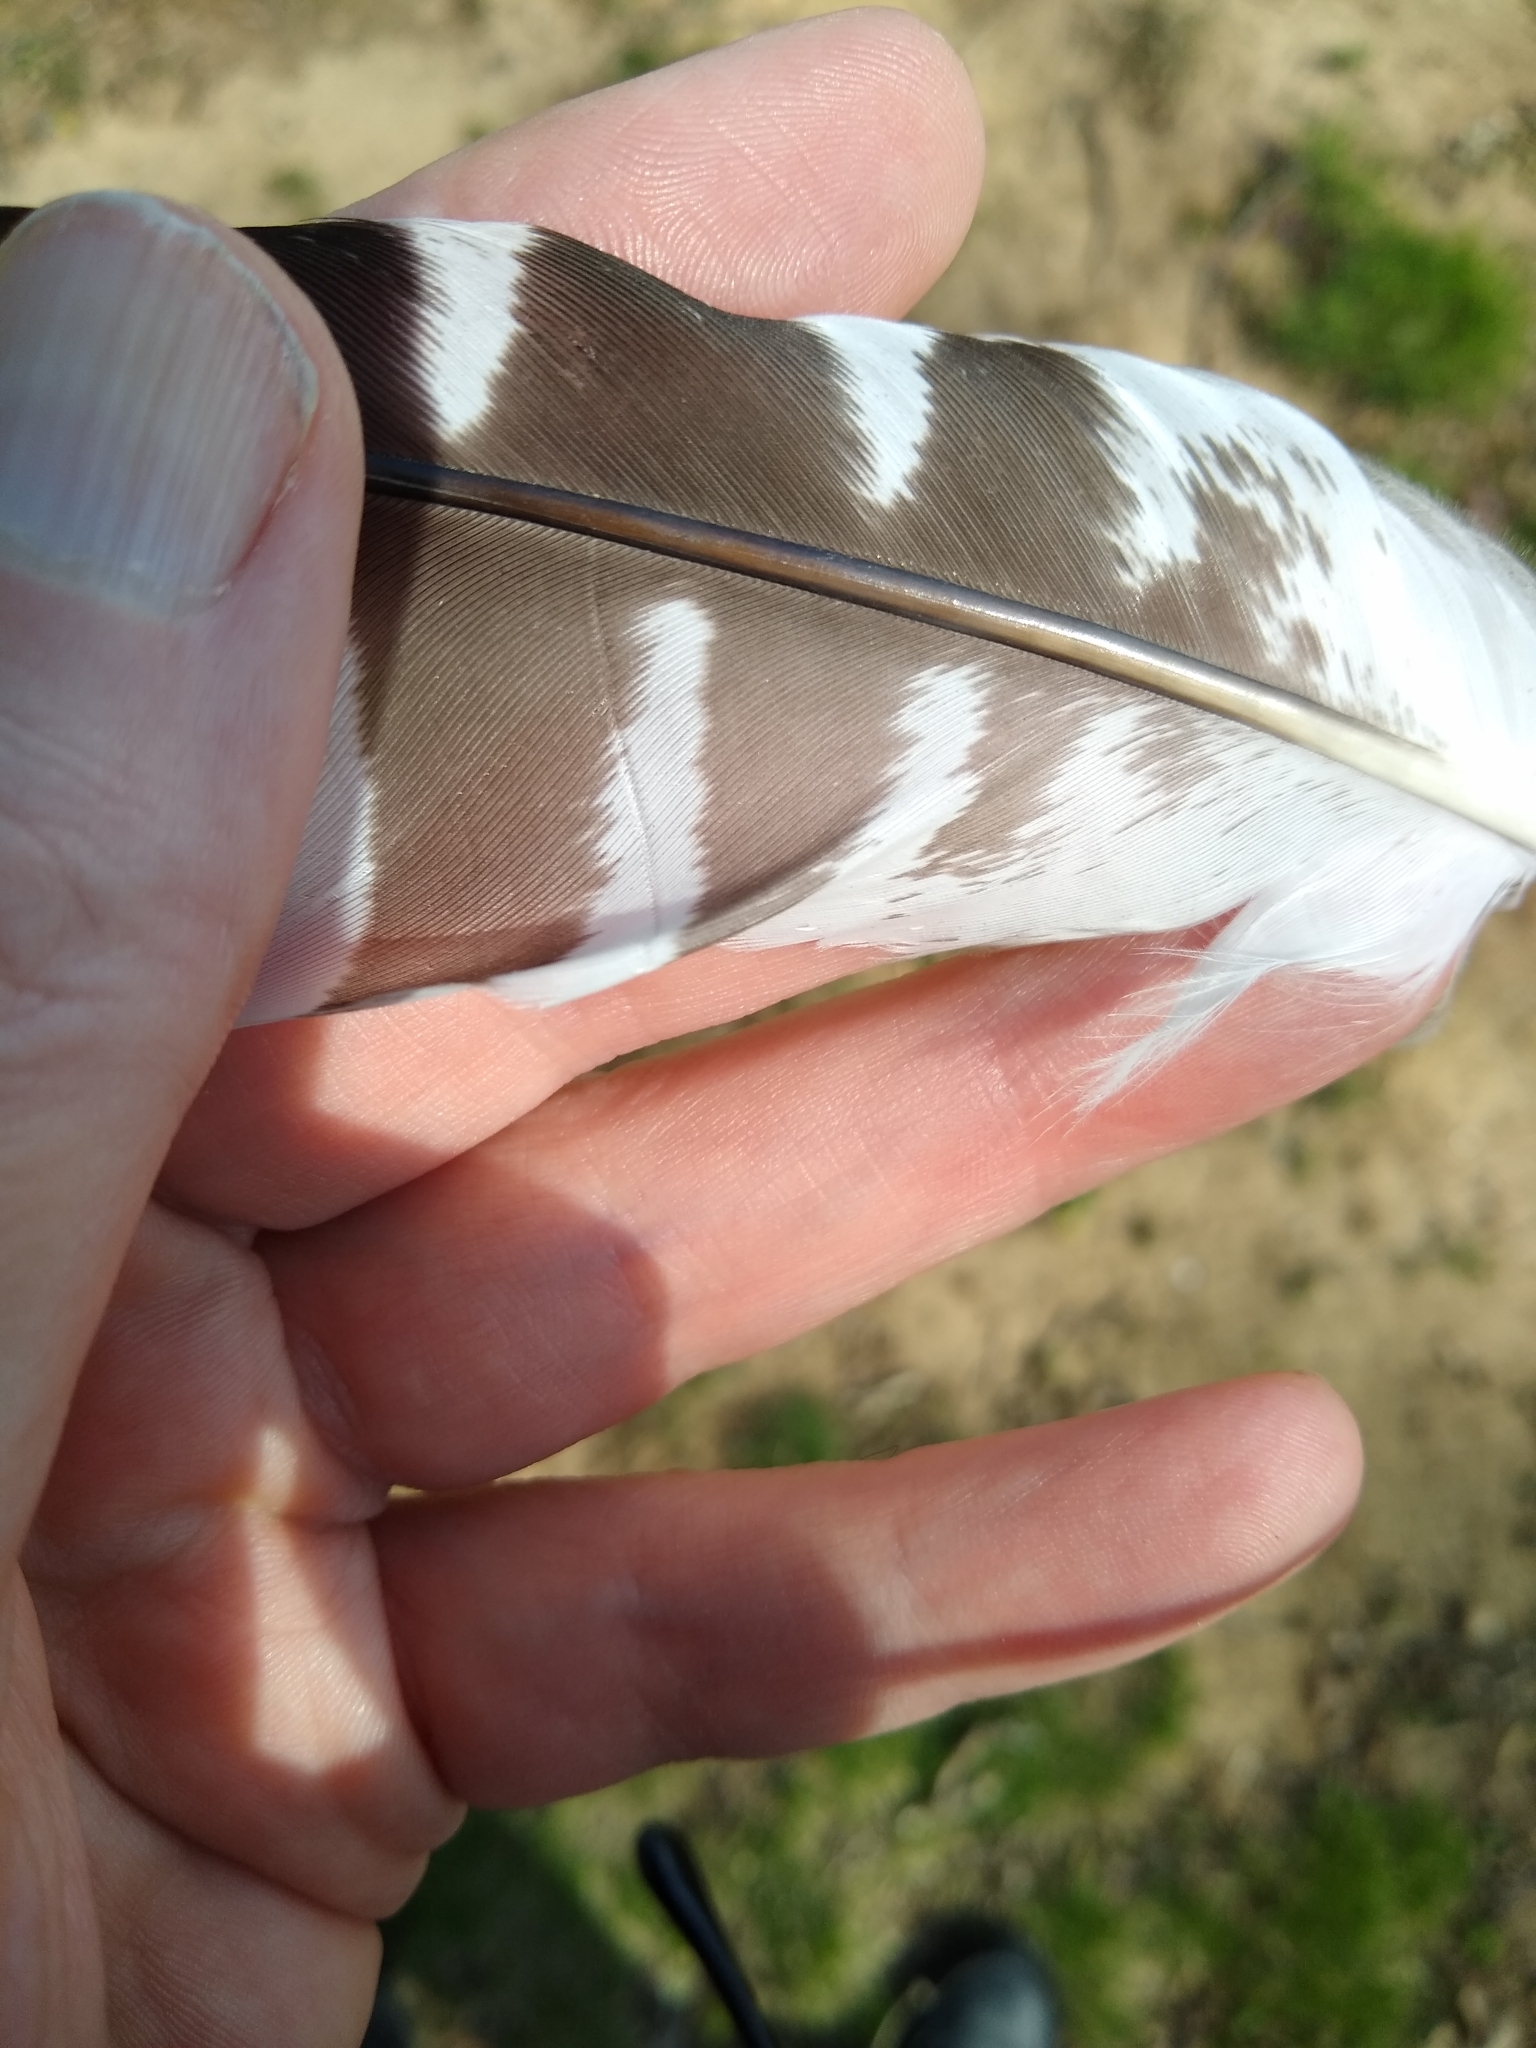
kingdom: Animalia
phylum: Chordata
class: Aves
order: Accipitriformes
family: Accipitridae
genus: Buteo
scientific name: Buteo lineatus
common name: Red-shouldered hawk
